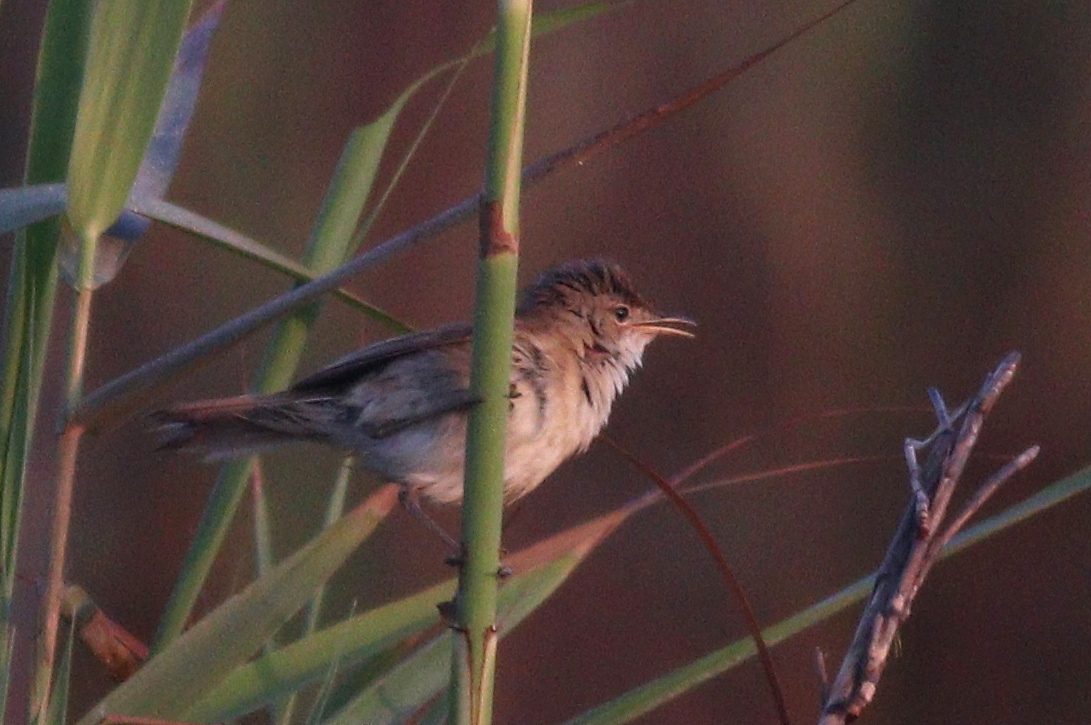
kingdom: Animalia
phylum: Chordata
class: Aves
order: Passeriformes
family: Acrocephalidae
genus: Acrocephalus
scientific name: Acrocephalus scirpaceus
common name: Eurasian reed warbler
